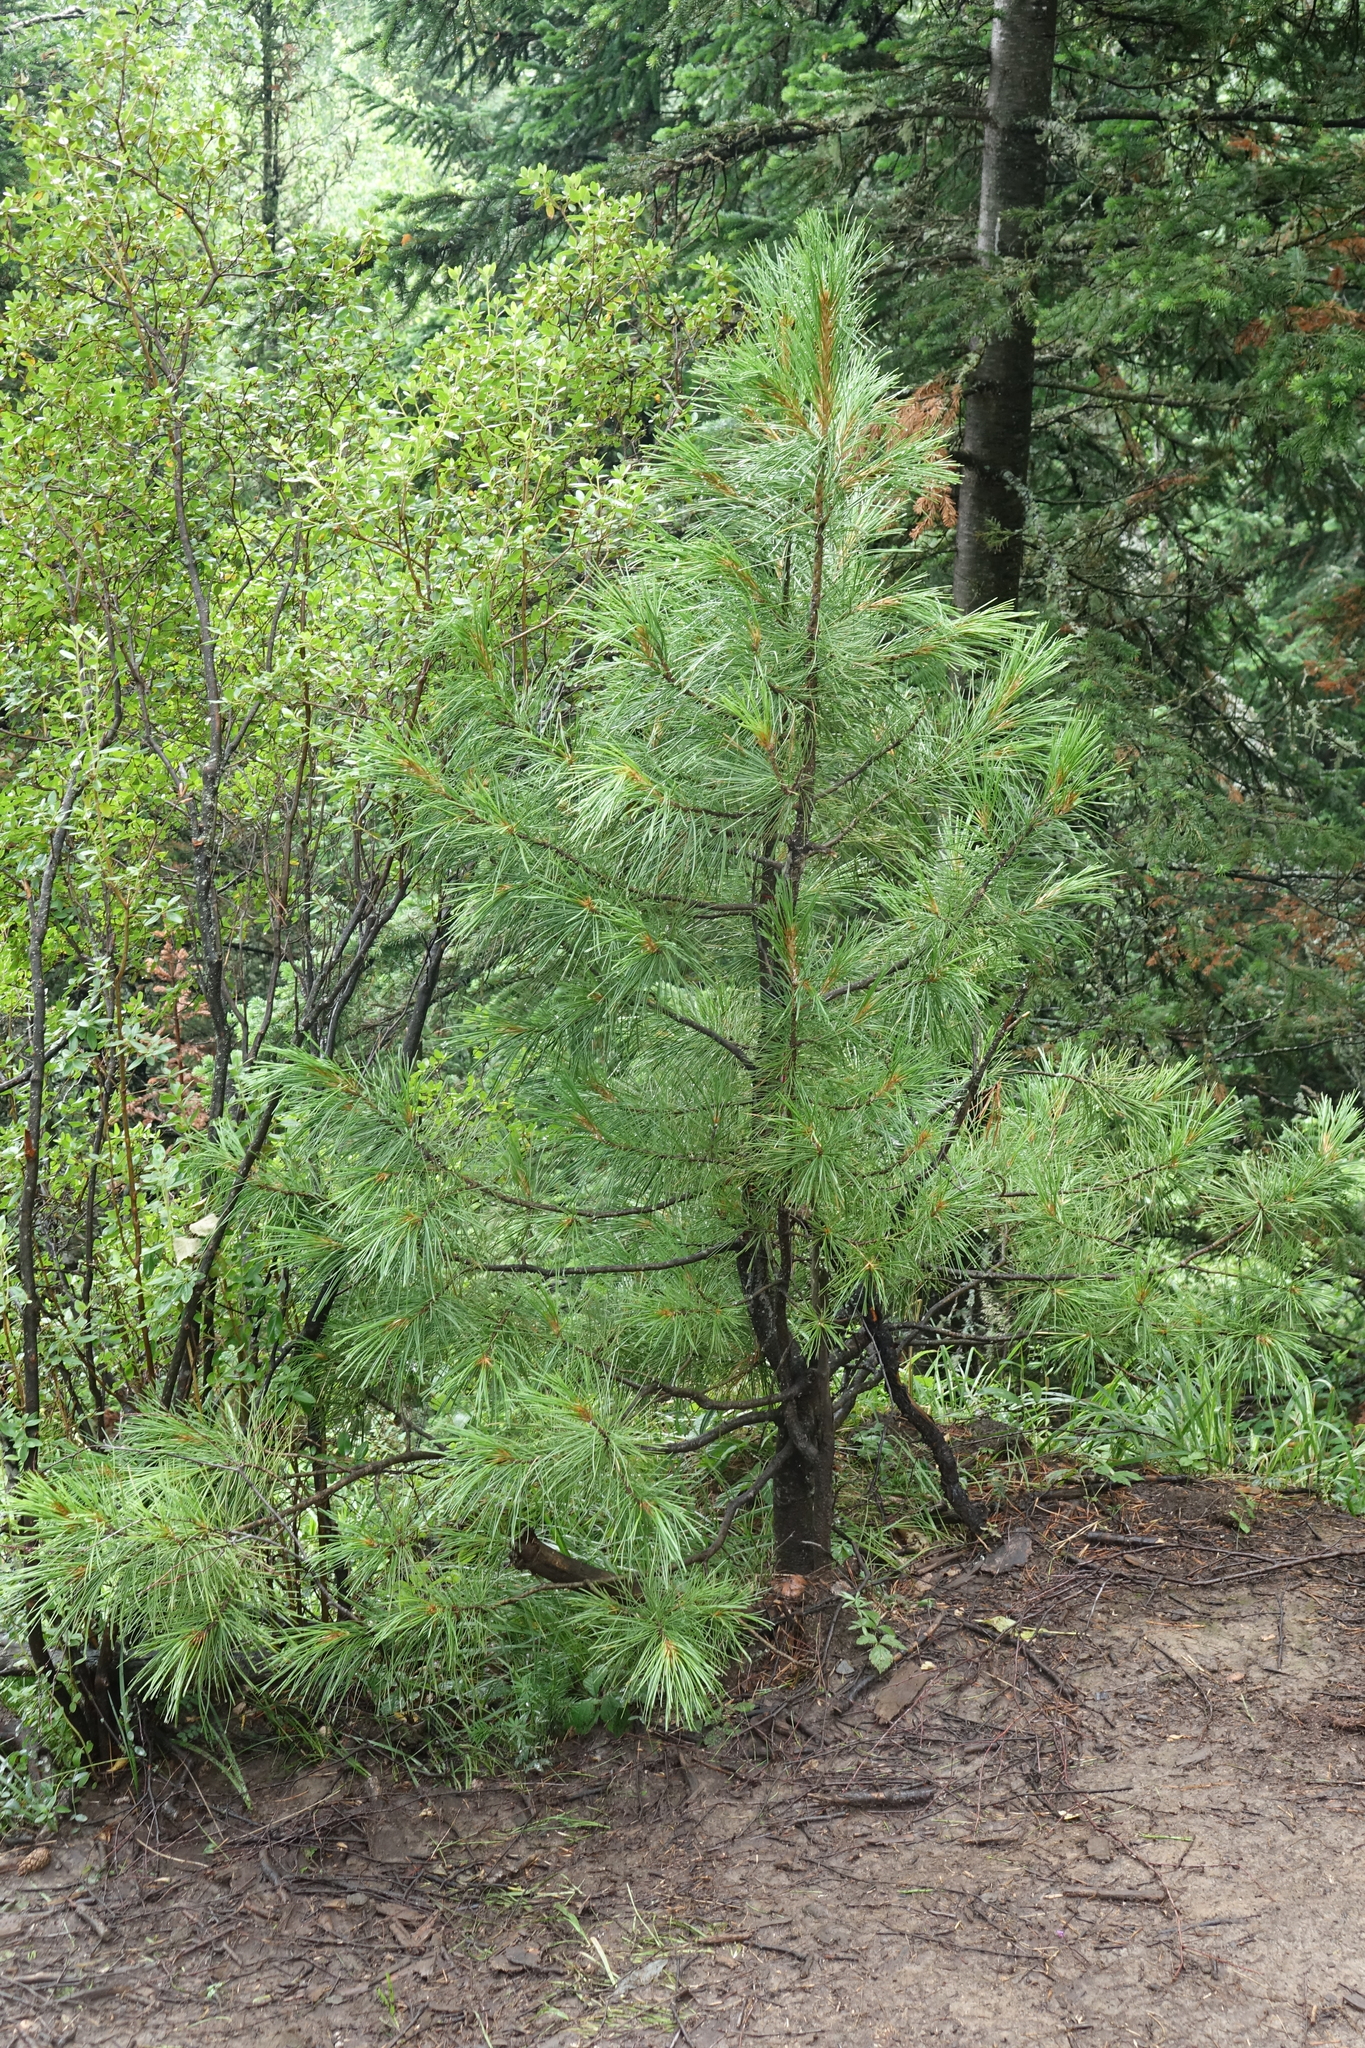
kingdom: Plantae
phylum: Tracheophyta
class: Pinopsida
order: Pinales
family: Pinaceae
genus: Pinus
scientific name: Pinus sibirica
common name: Siberian pine
